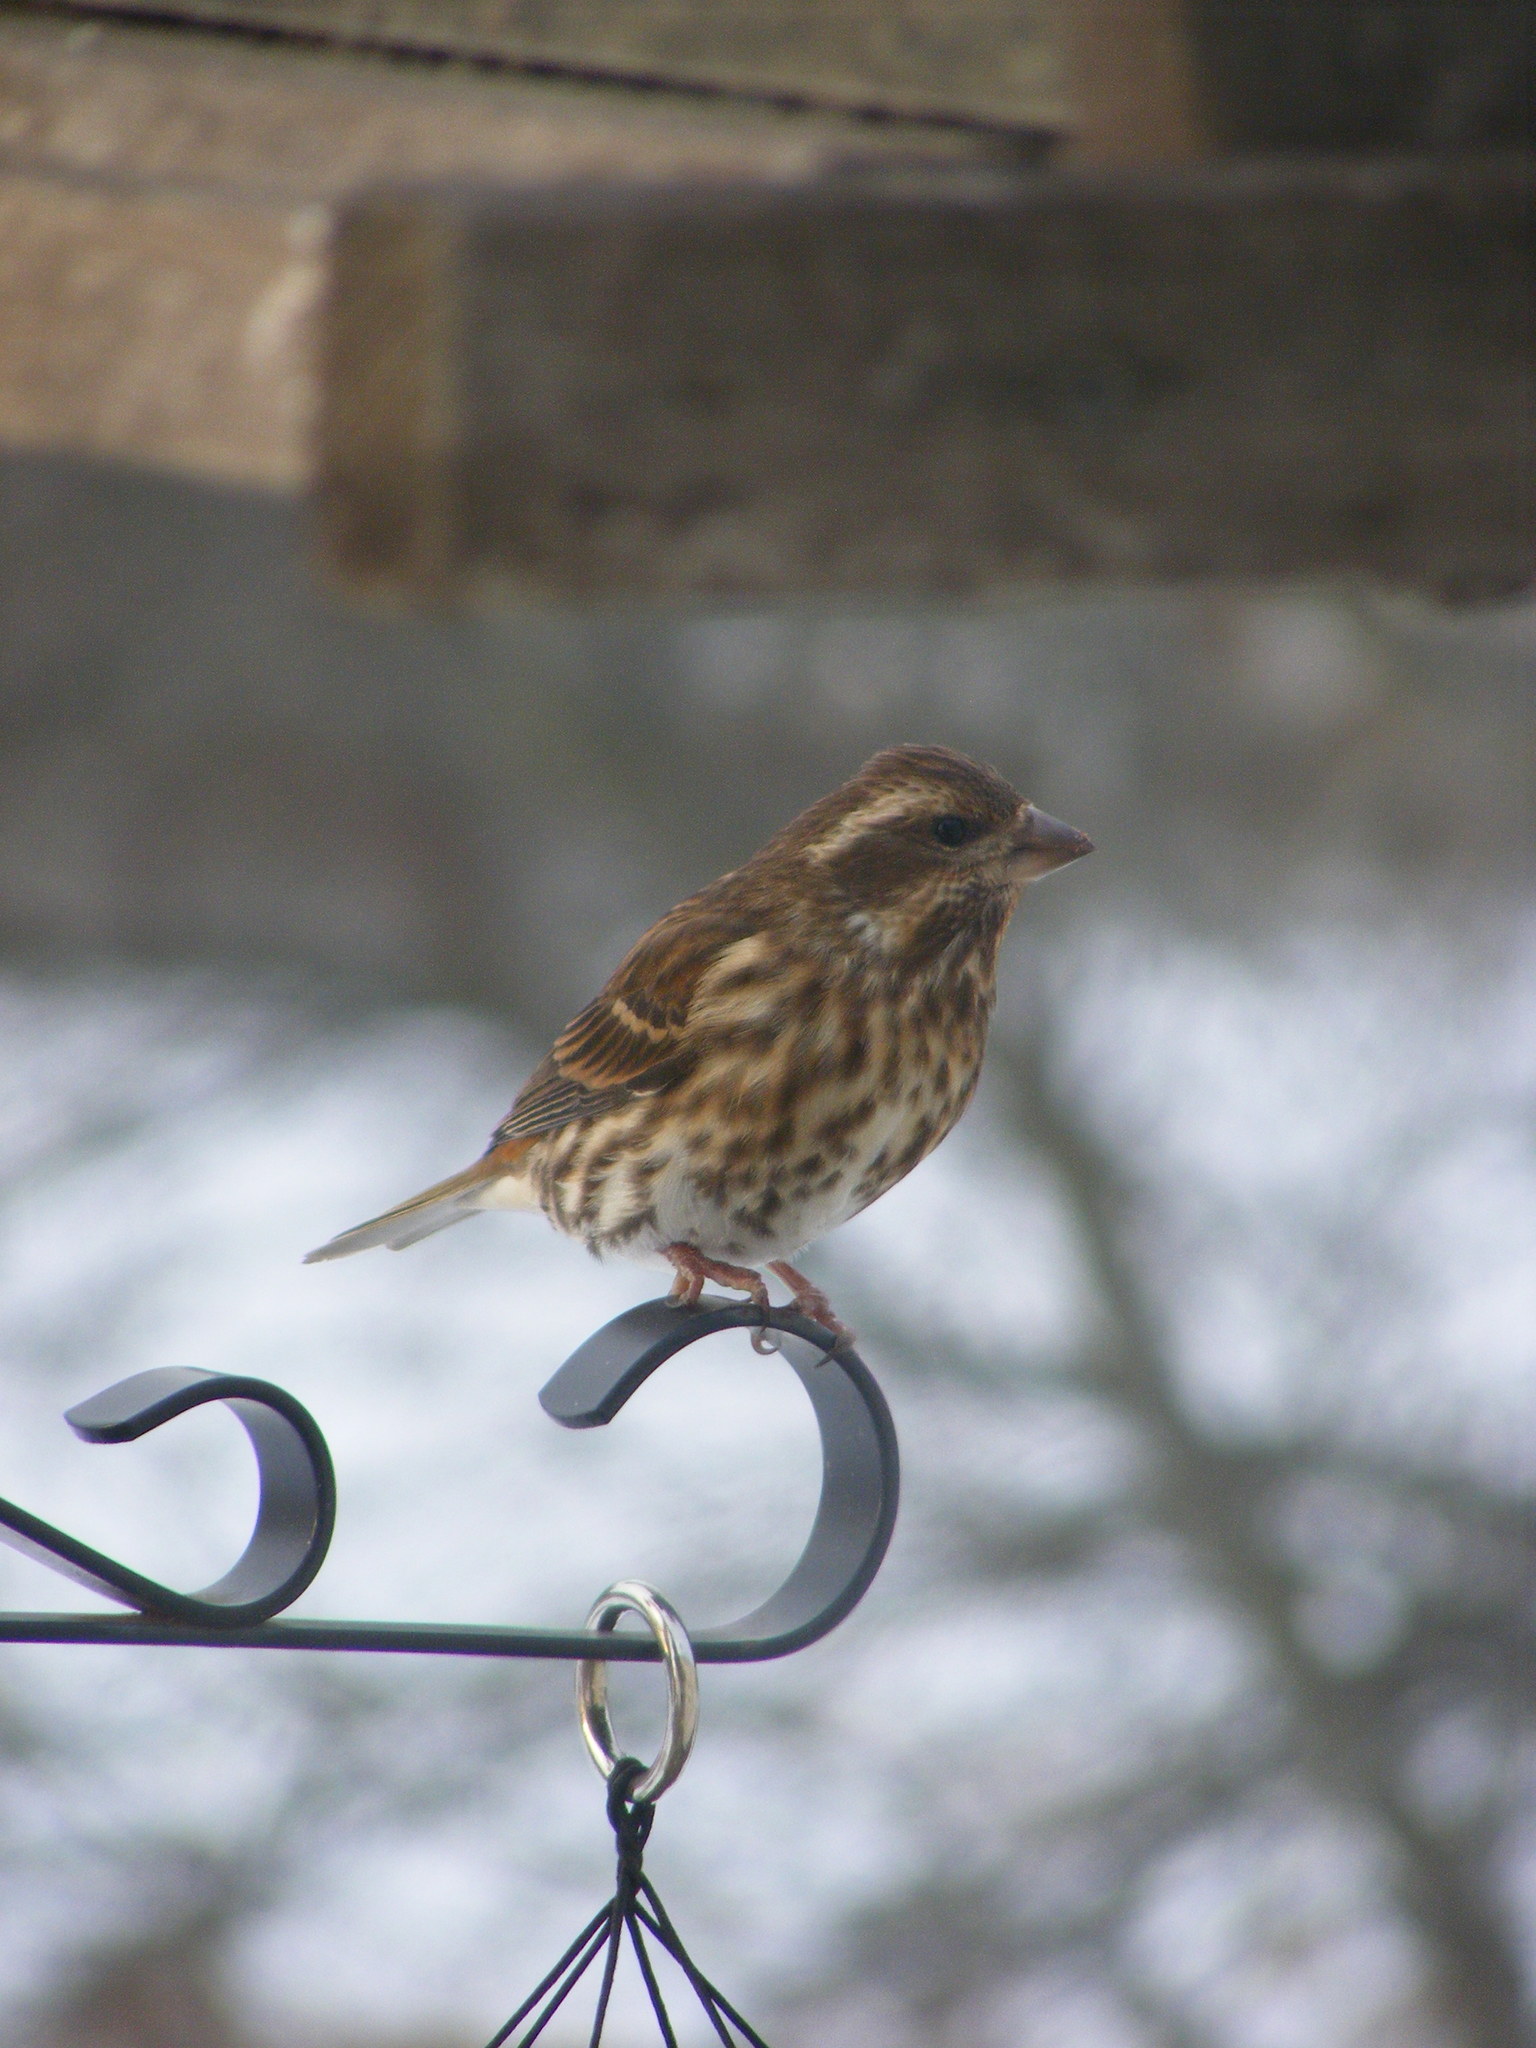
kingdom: Animalia
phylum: Chordata
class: Aves
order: Passeriformes
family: Fringillidae
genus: Haemorhous
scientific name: Haemorhous purpureus
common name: Purple finch
